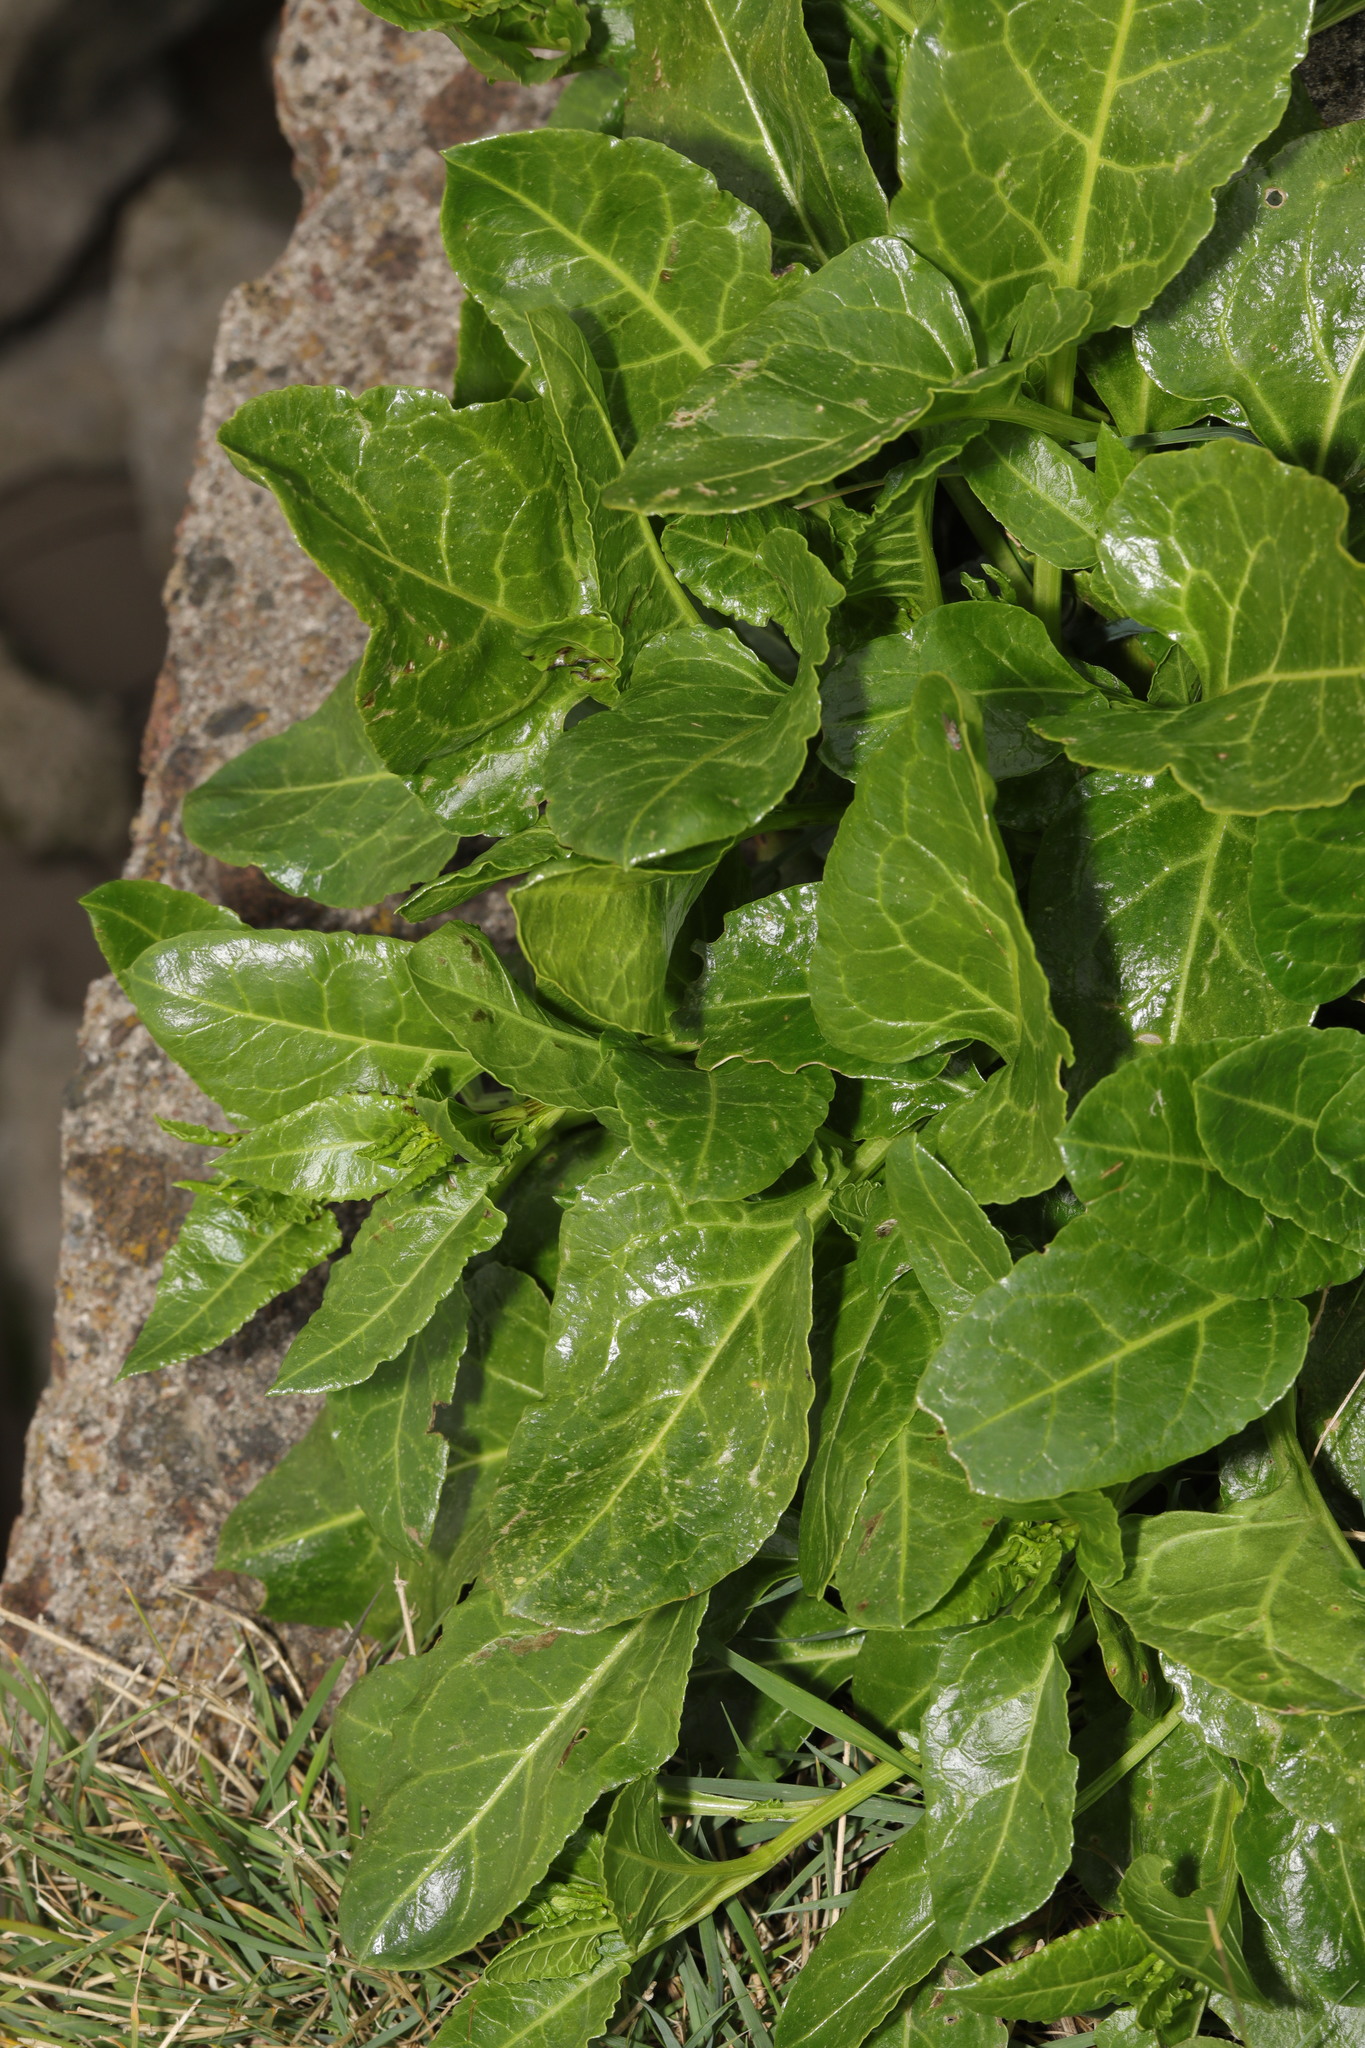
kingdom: Plantae
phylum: Tracheophyta
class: Magnoliopsida
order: Caryophyllales
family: Amaranthaceae
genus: Beta
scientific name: Beta vulgaris
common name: Beet
